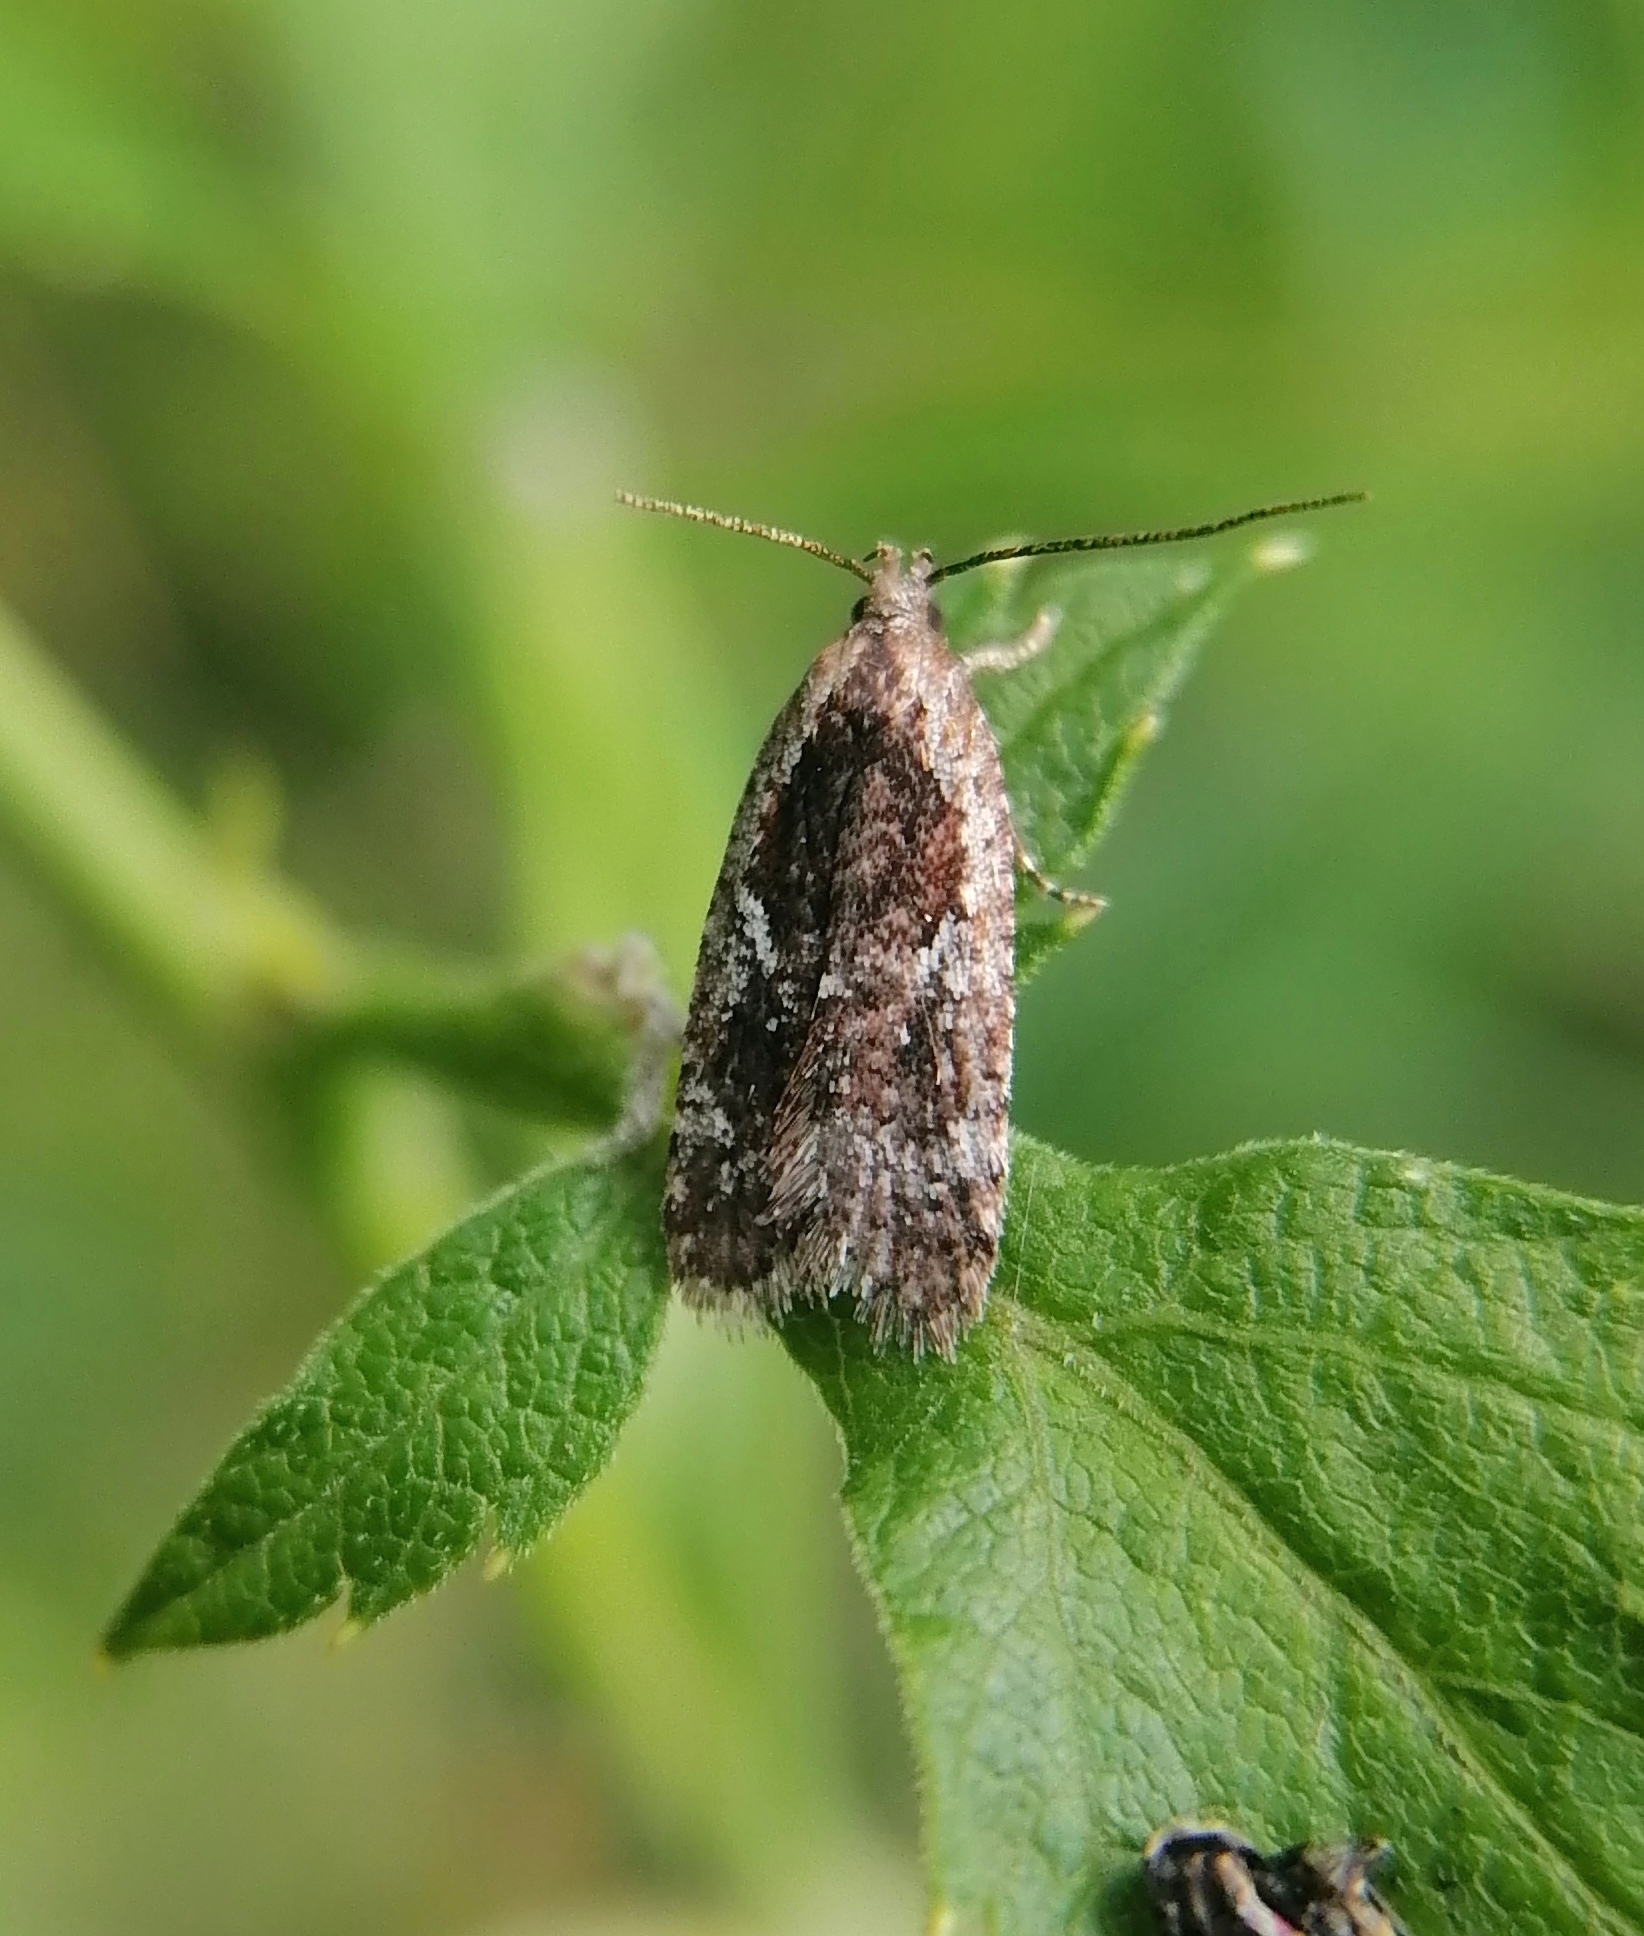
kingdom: Animalia
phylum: Arthropoda
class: Insecta
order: Lepidoptera
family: Depressariidae
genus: Agonopterix
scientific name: Agonopterix hypericella
